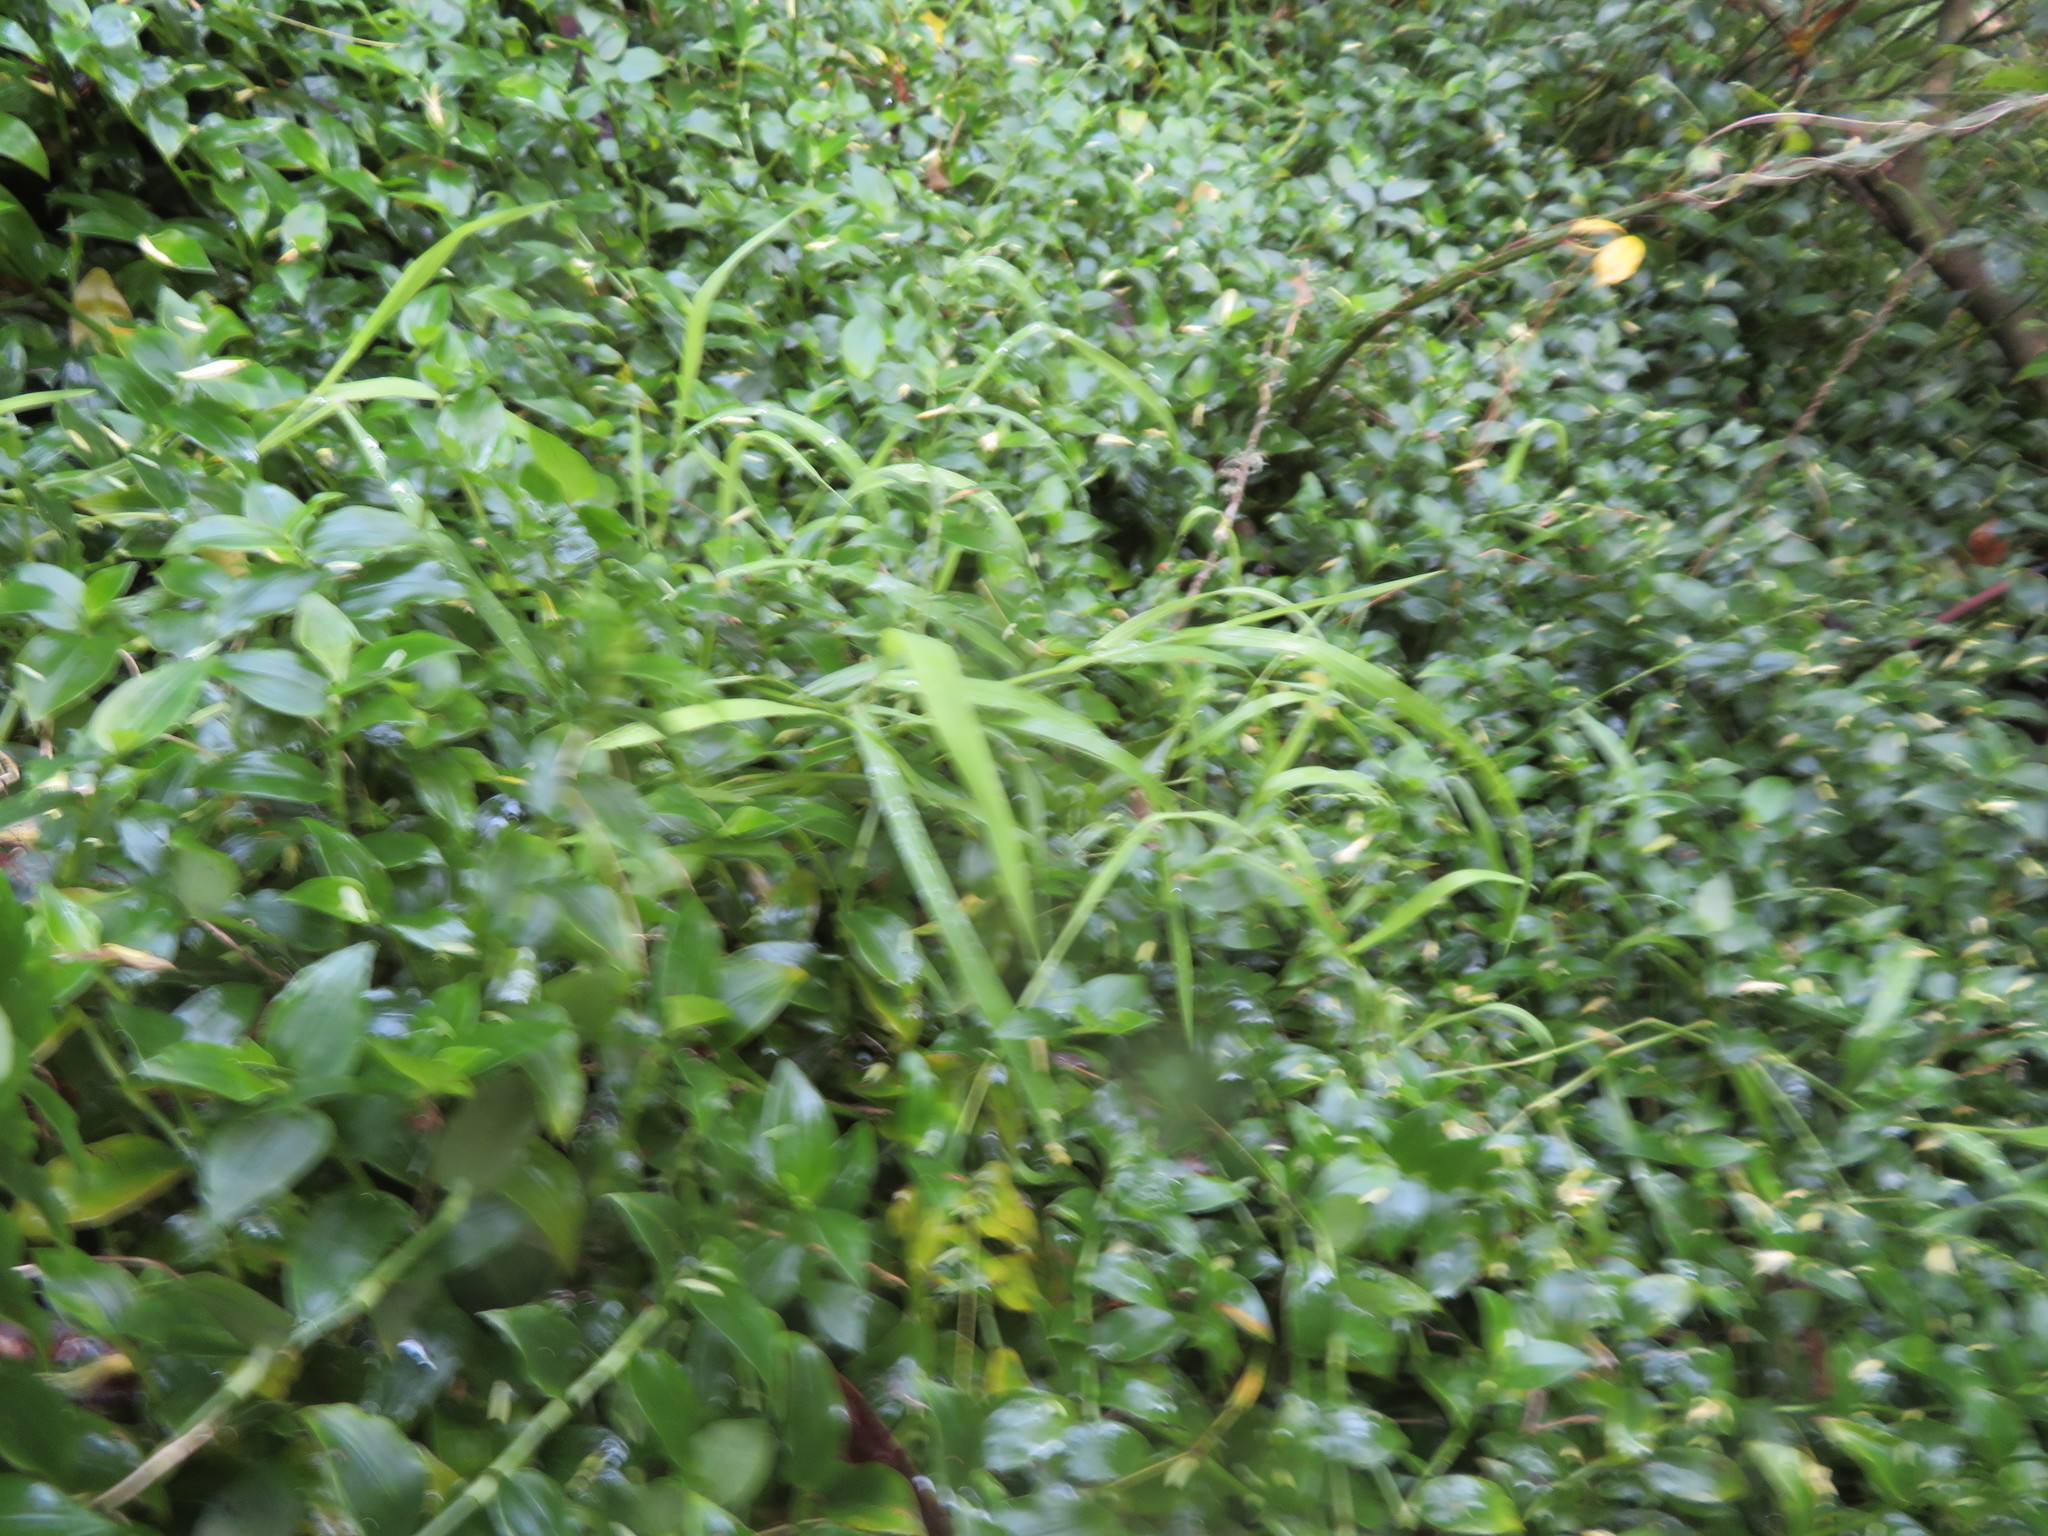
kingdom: Plantae
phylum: Tracheophyta
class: Liliopsida
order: Poales
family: Poaceae
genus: Ehrharta
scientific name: Ehrharta erecta
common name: Panic veldtgrass
